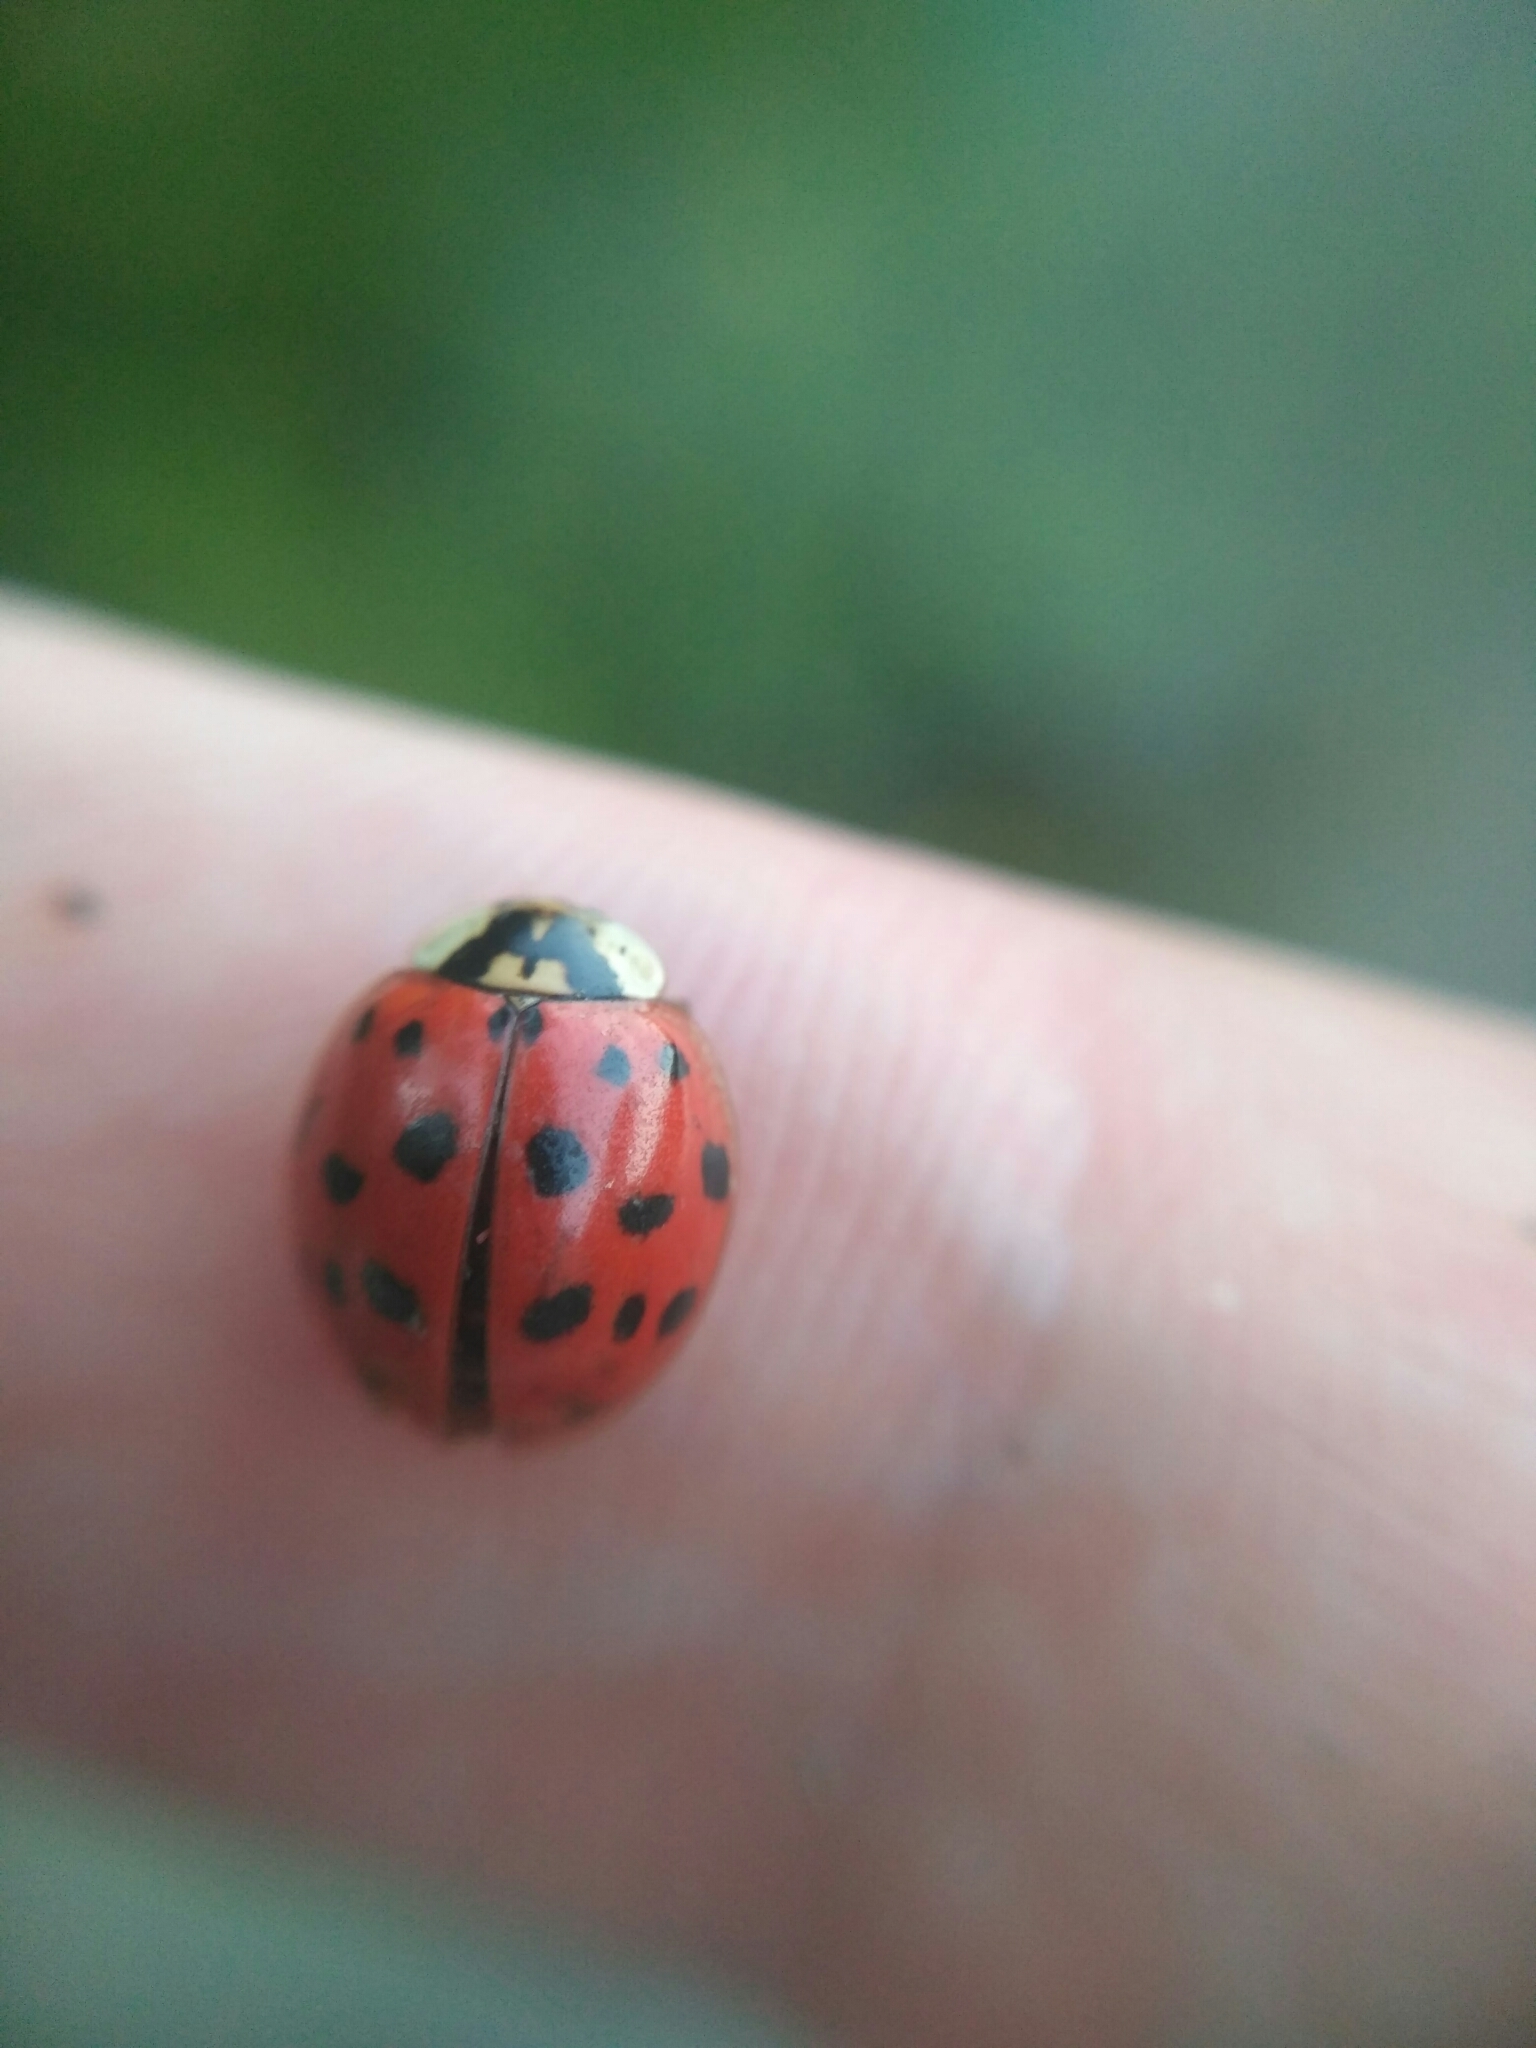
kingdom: Animalia
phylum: Arthropoda
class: Insecta
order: Coleoptera
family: Coccinellidae
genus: Harmonia
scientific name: Harmonia axyridis
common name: Harlequin ladybird
